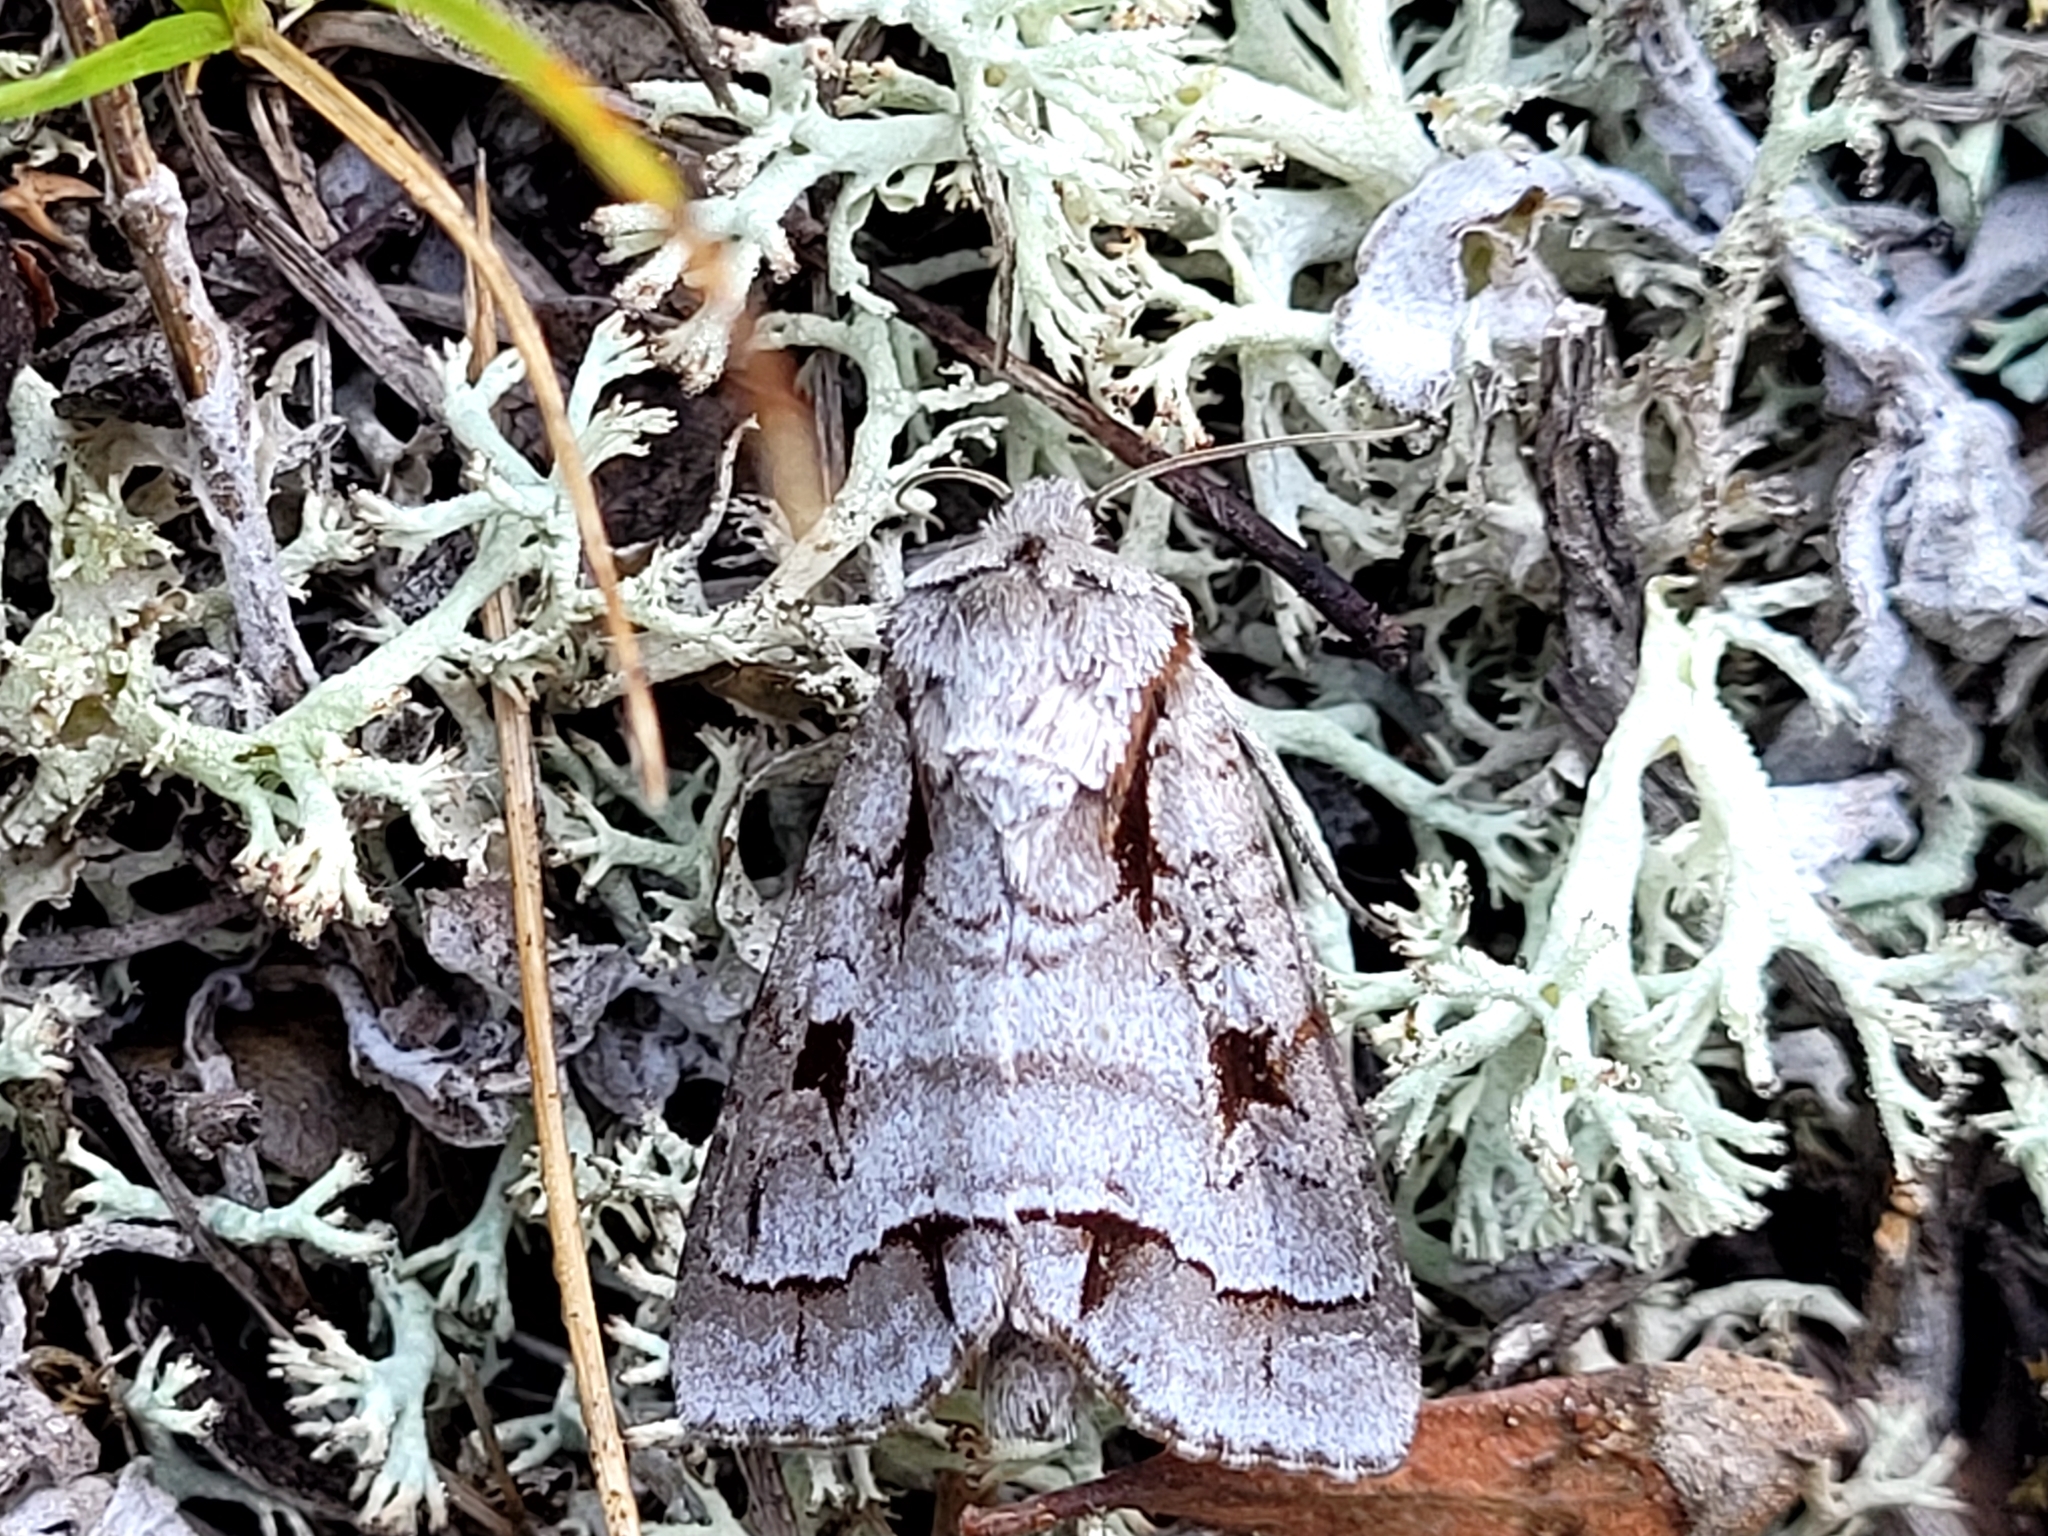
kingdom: Animalia
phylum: Arthropoda
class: Insecta
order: Lepidoptera
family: Noctuidae
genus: Acronicta
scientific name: Acronicta quadrata
